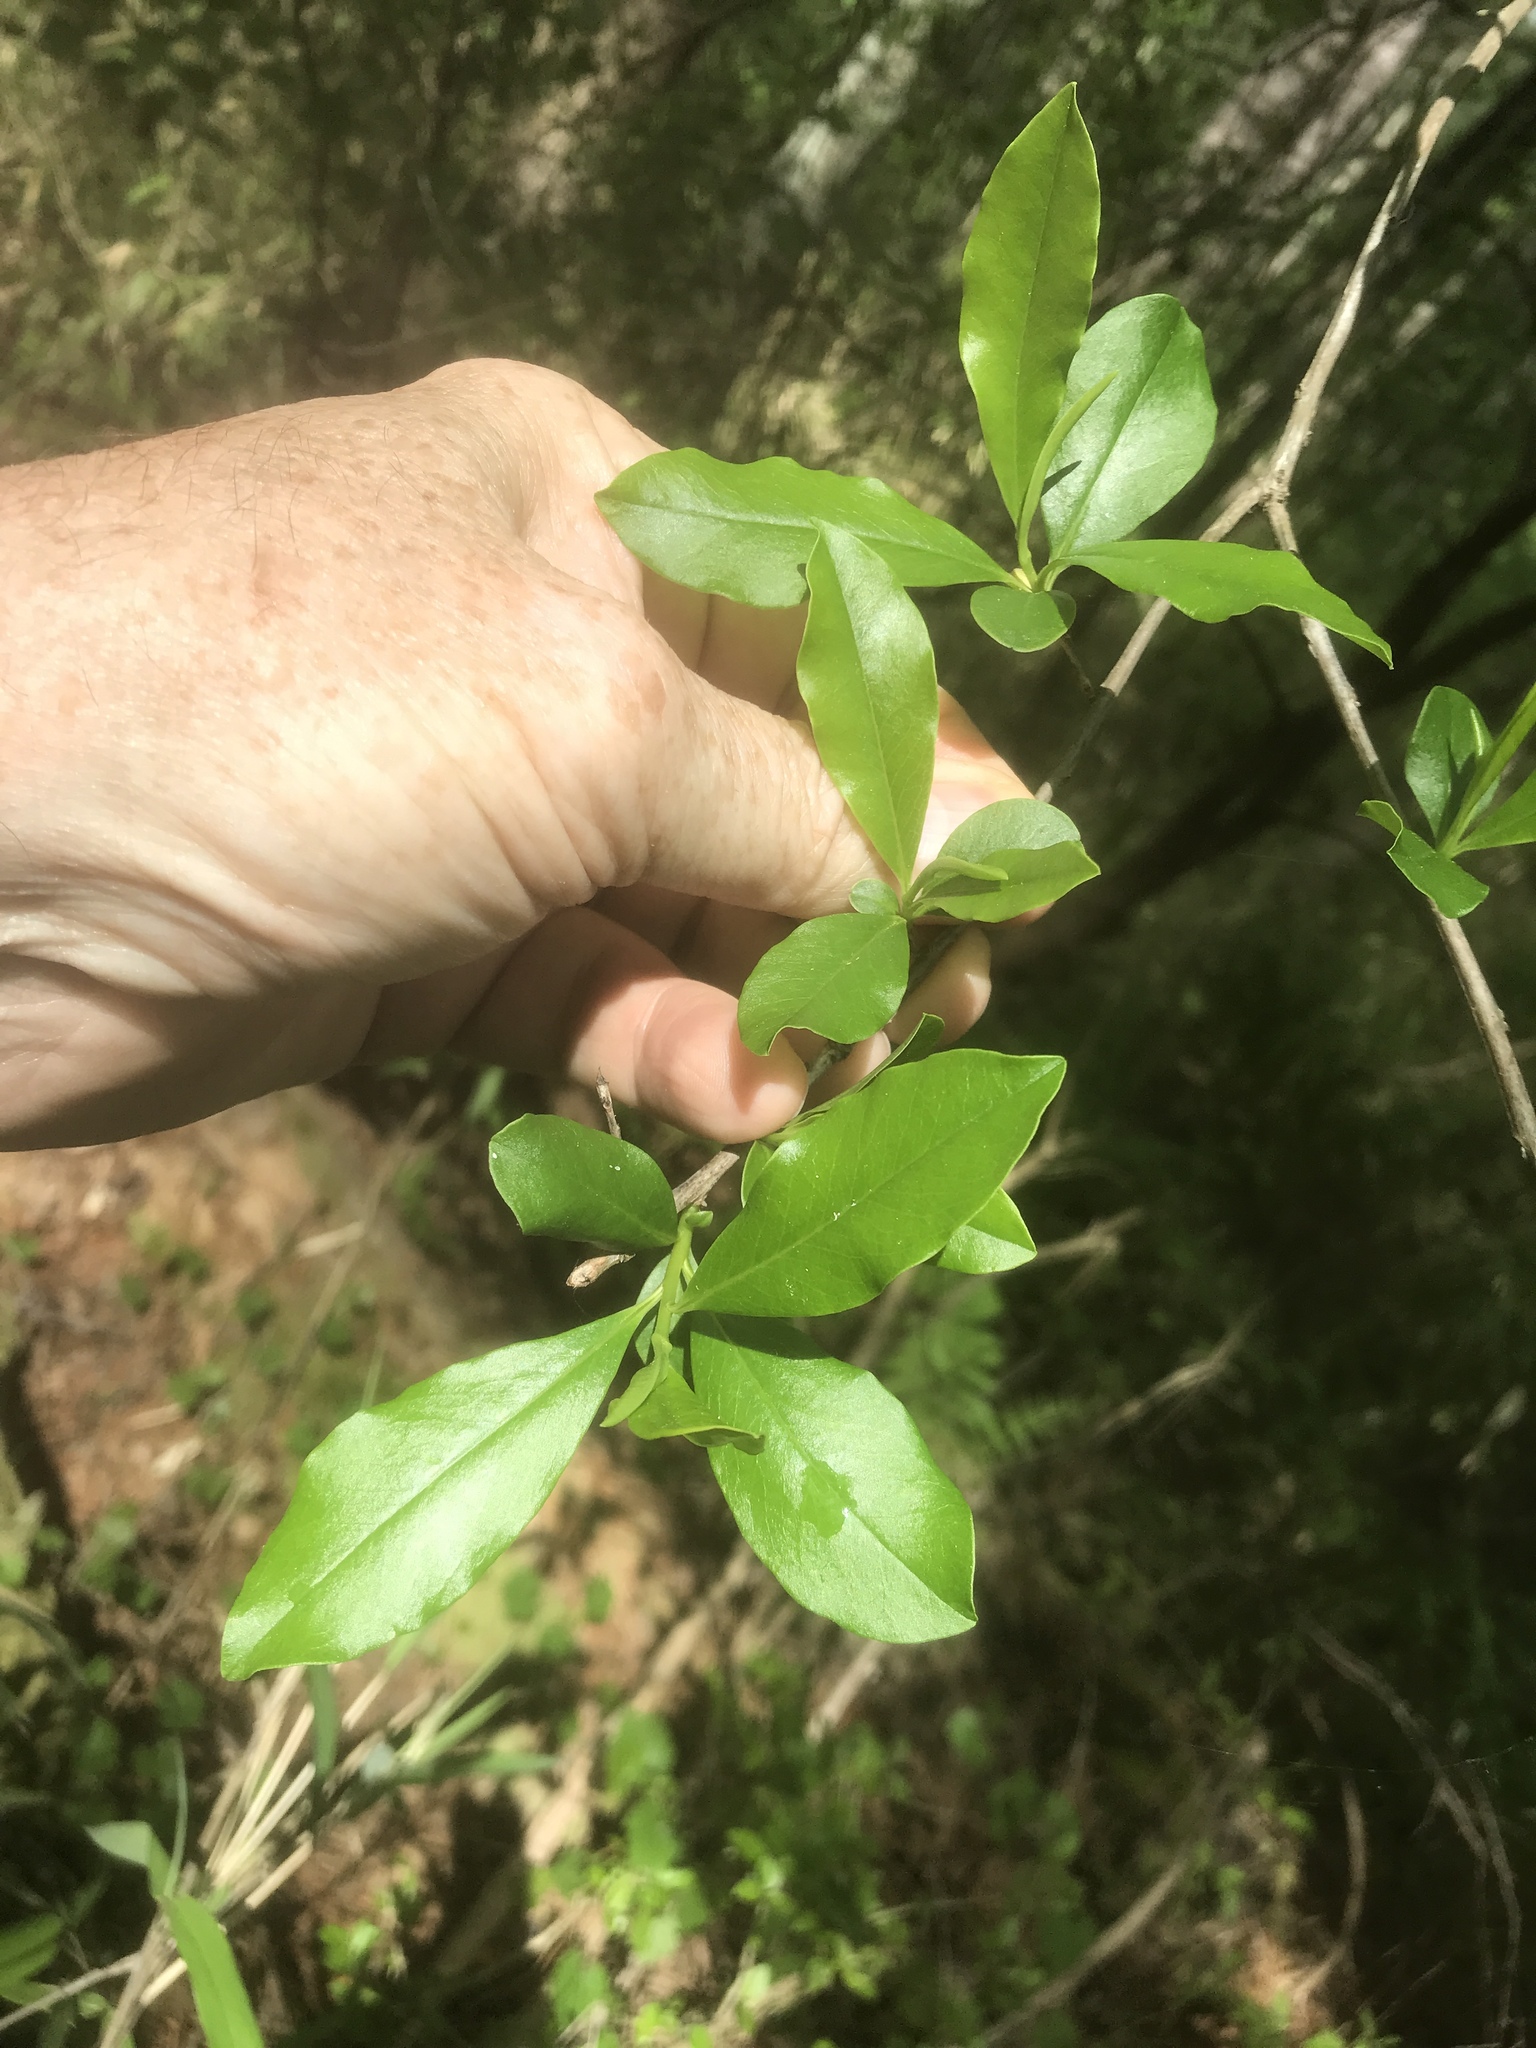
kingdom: Plantae
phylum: Tracheophyta
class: Magnoliopsida
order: Ericales
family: Cyrillaceae
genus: Cyrilla
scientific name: Cyrilla racemiflora
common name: Black titi
